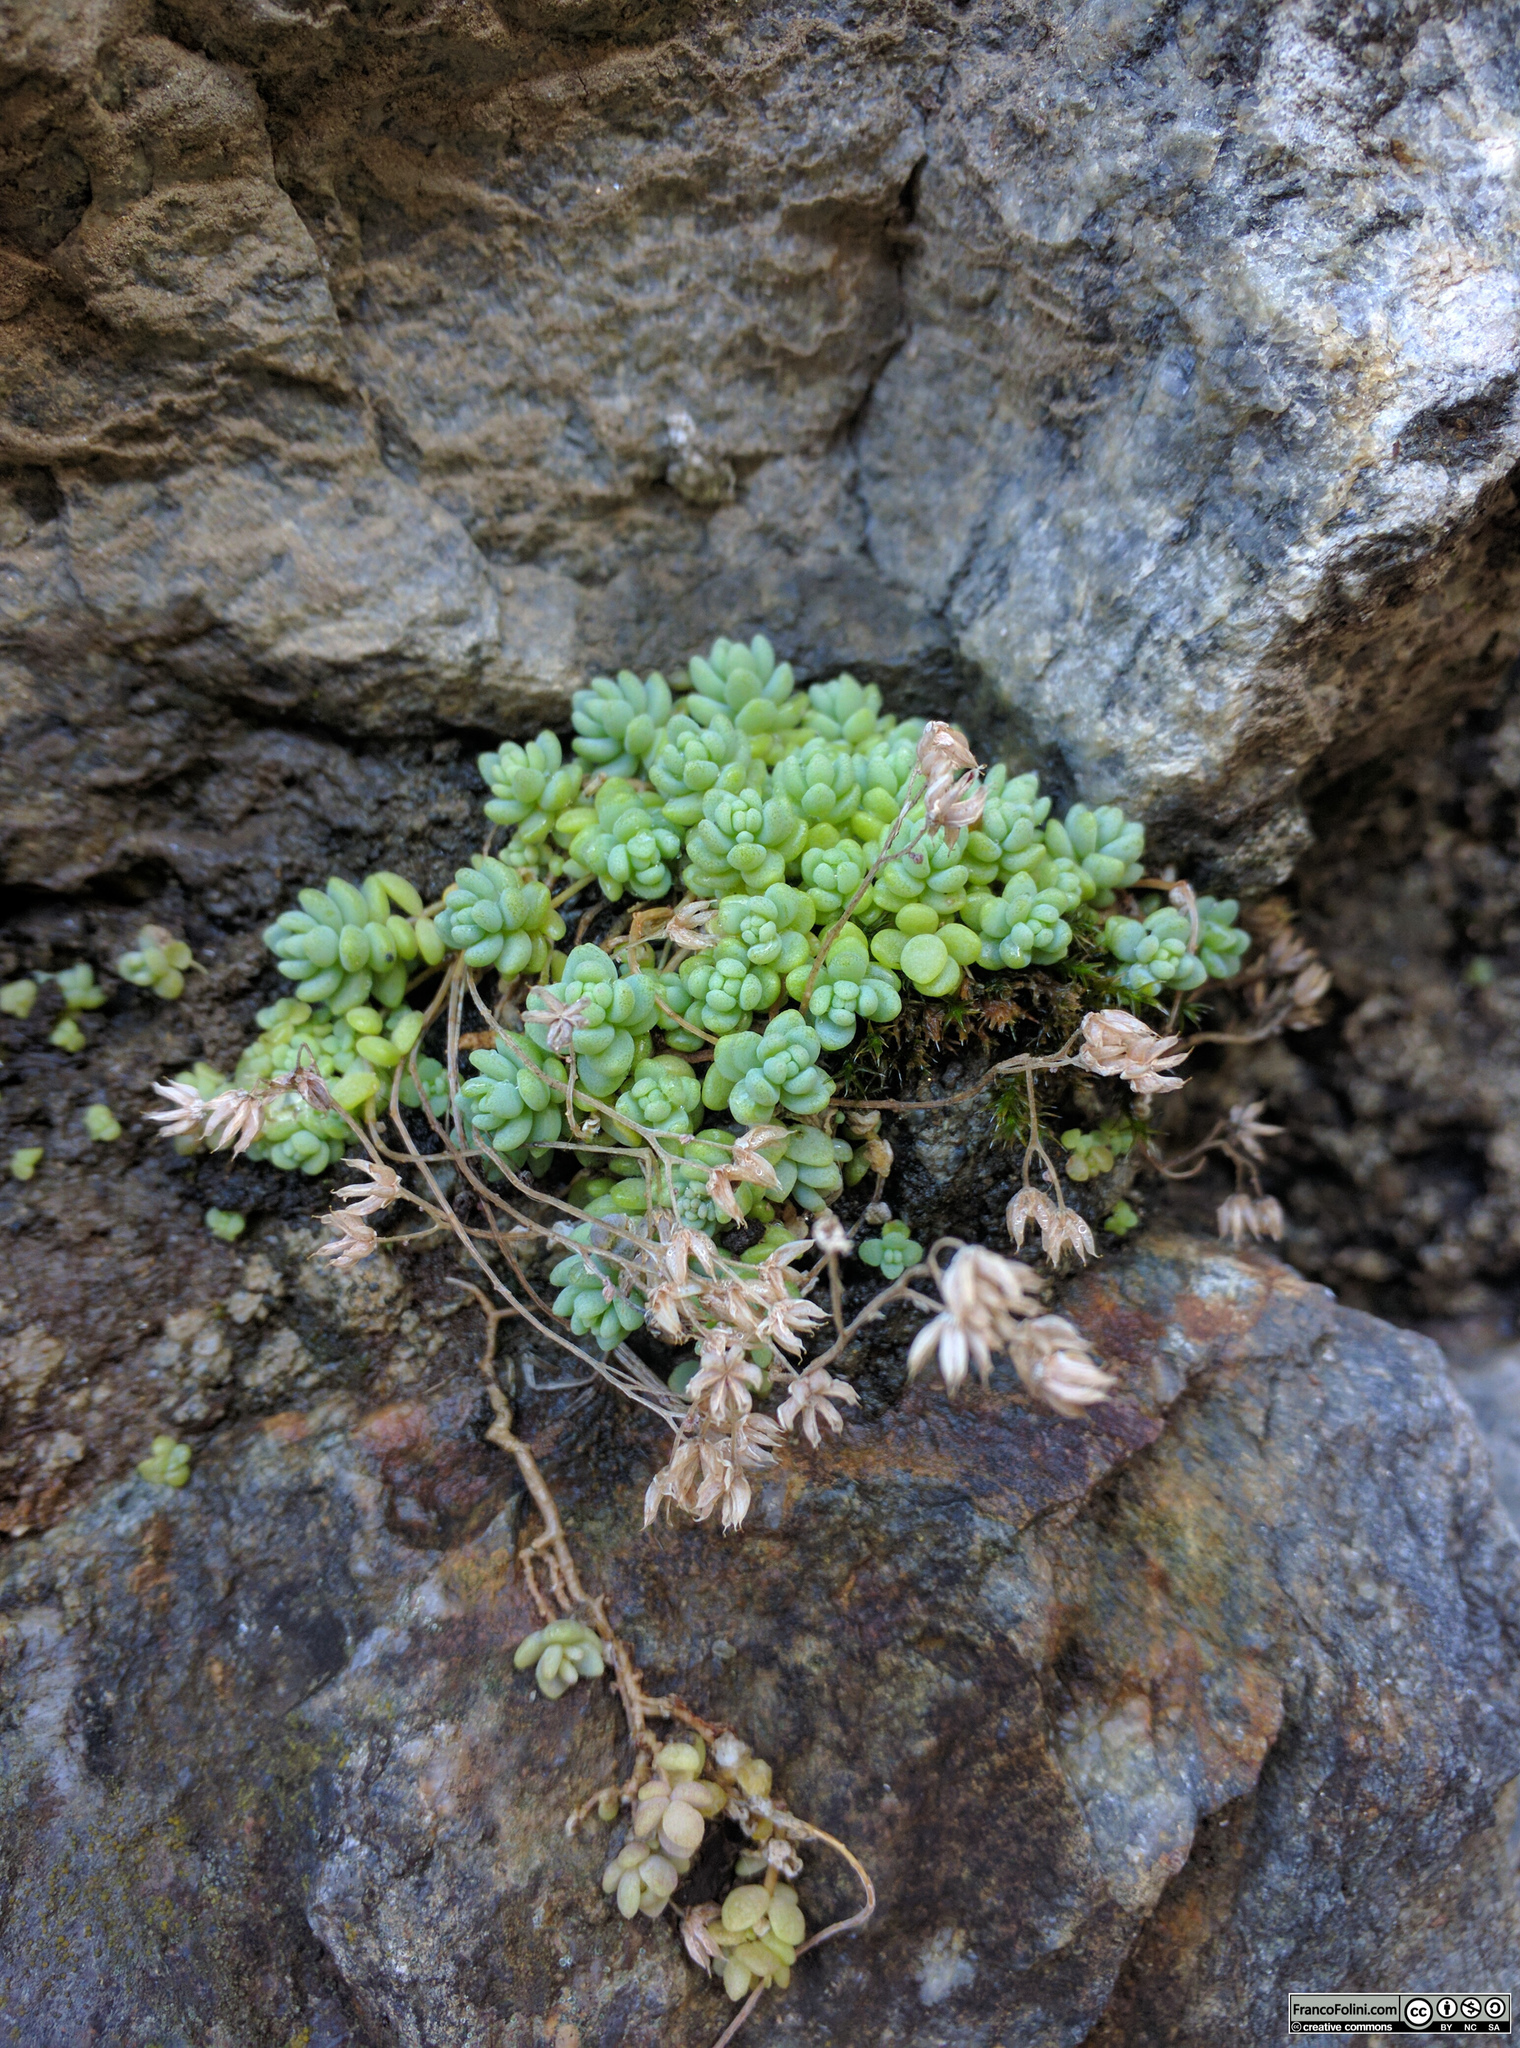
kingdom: Plantae
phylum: Tracheophyta
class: Magnoliopsida
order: Saxifragales
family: Crassulaceae
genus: Sedum
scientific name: Sedum dasyphyllum
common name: Thick-leaf stonecrop
